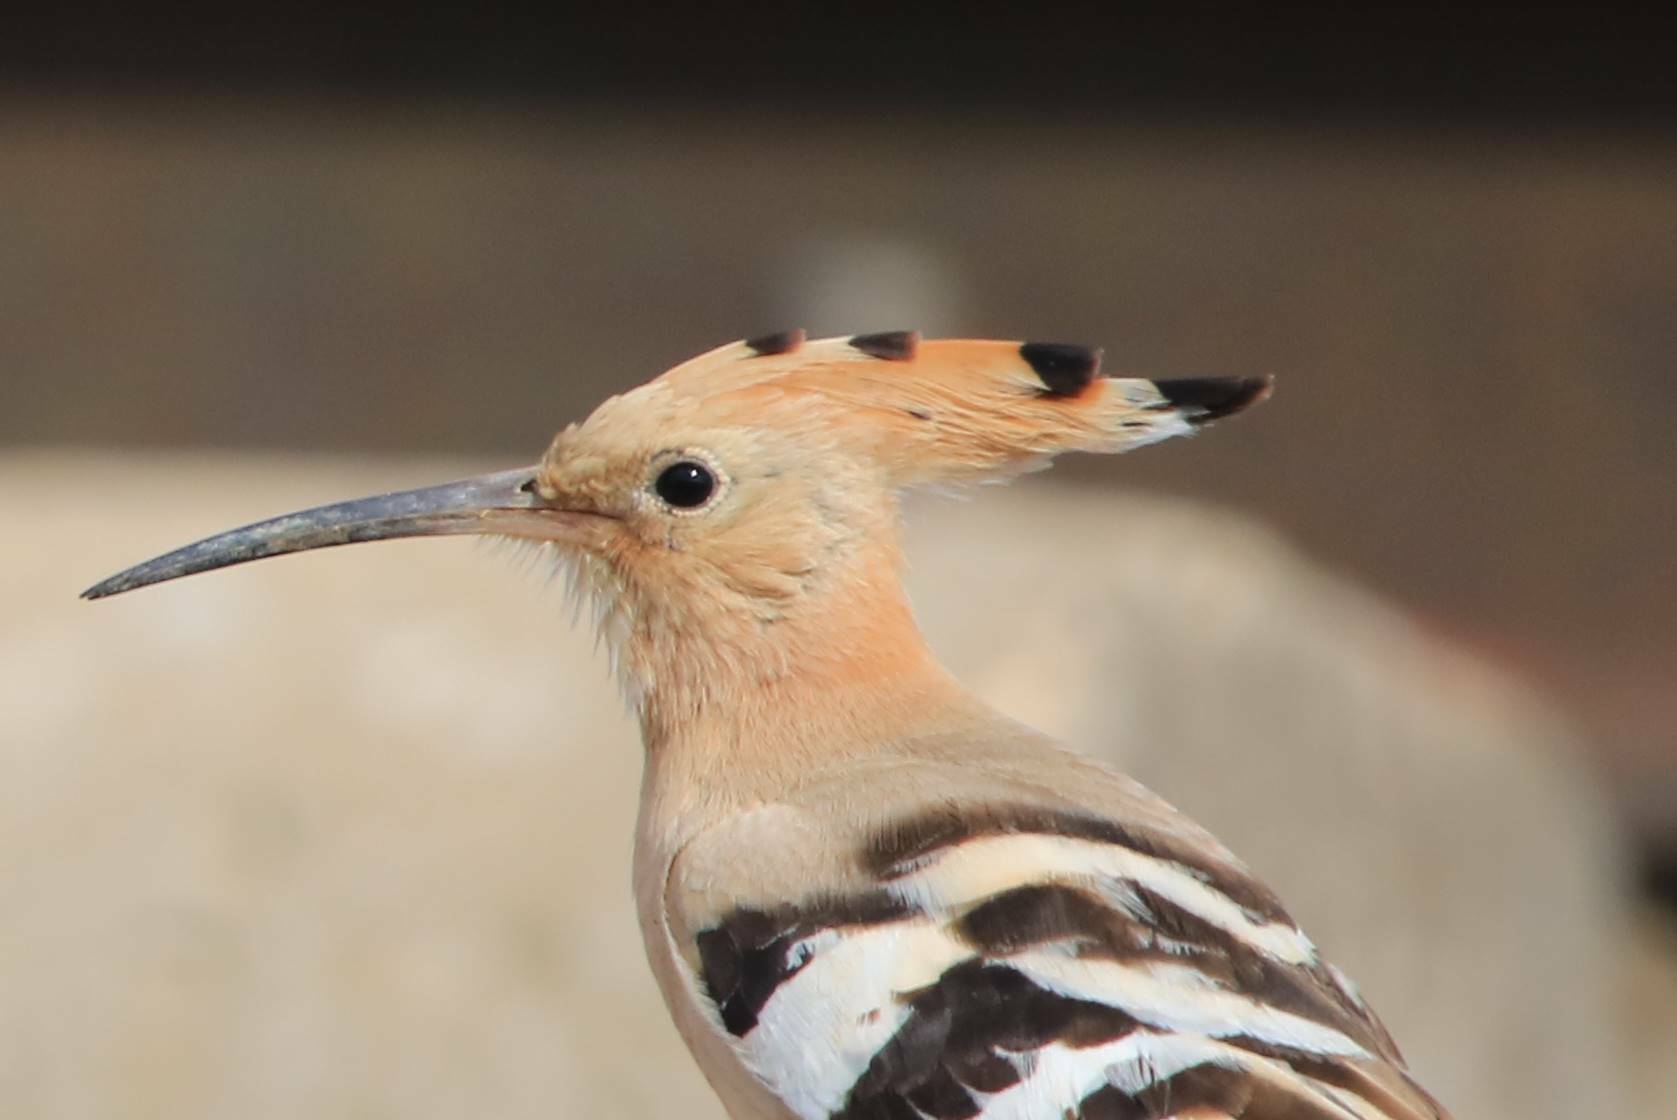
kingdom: Animalia
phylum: Chordata
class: Aves
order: Bucerotiformes
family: Upupidae
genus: Upupa
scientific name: Upupa epops
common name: Eurasian hoopoe
